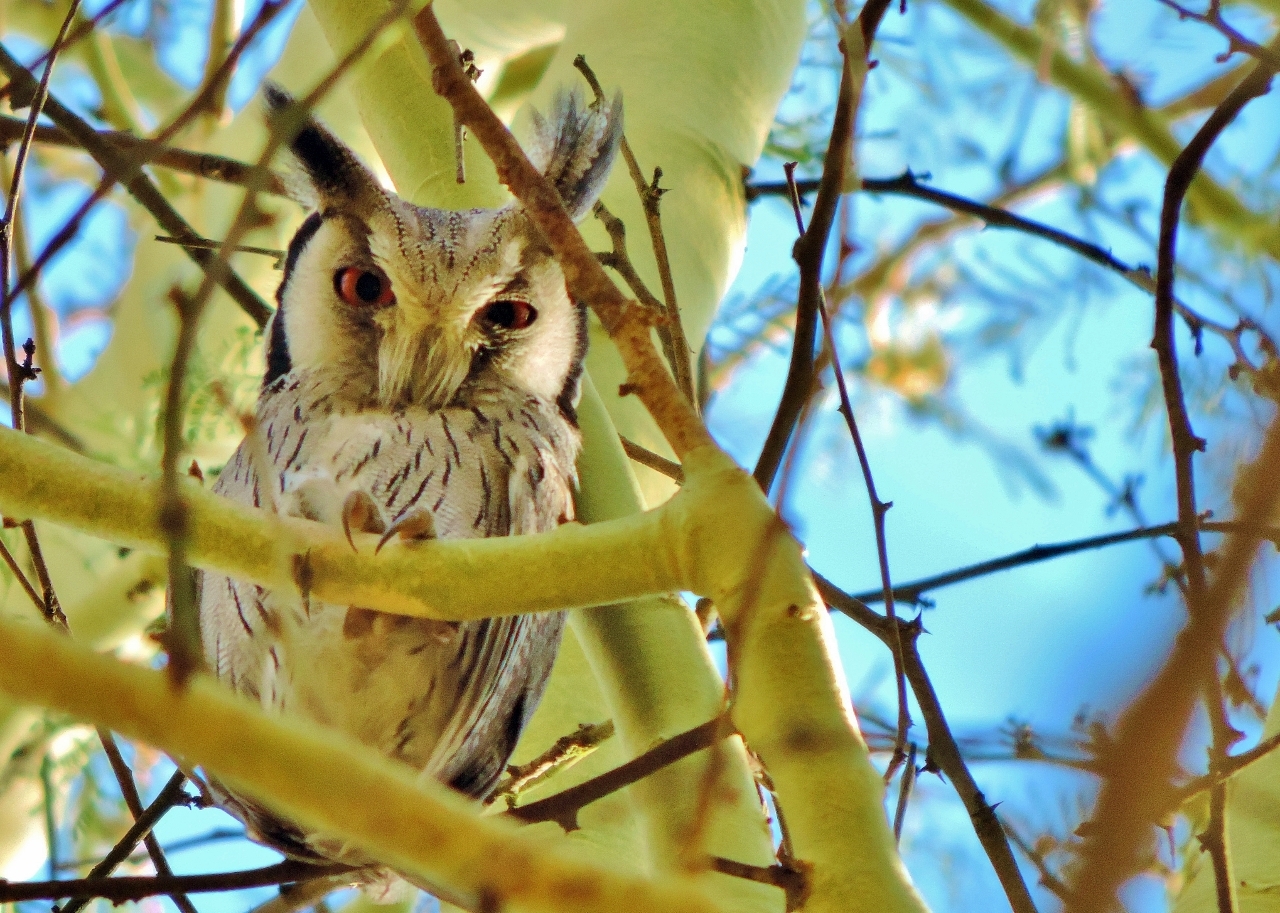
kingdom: Animalia
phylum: Chordata
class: Aves
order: Strigiformes
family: Strigidae
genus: Ptilopsis
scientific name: Ptilopsis granti
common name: Southern white-faced owl
